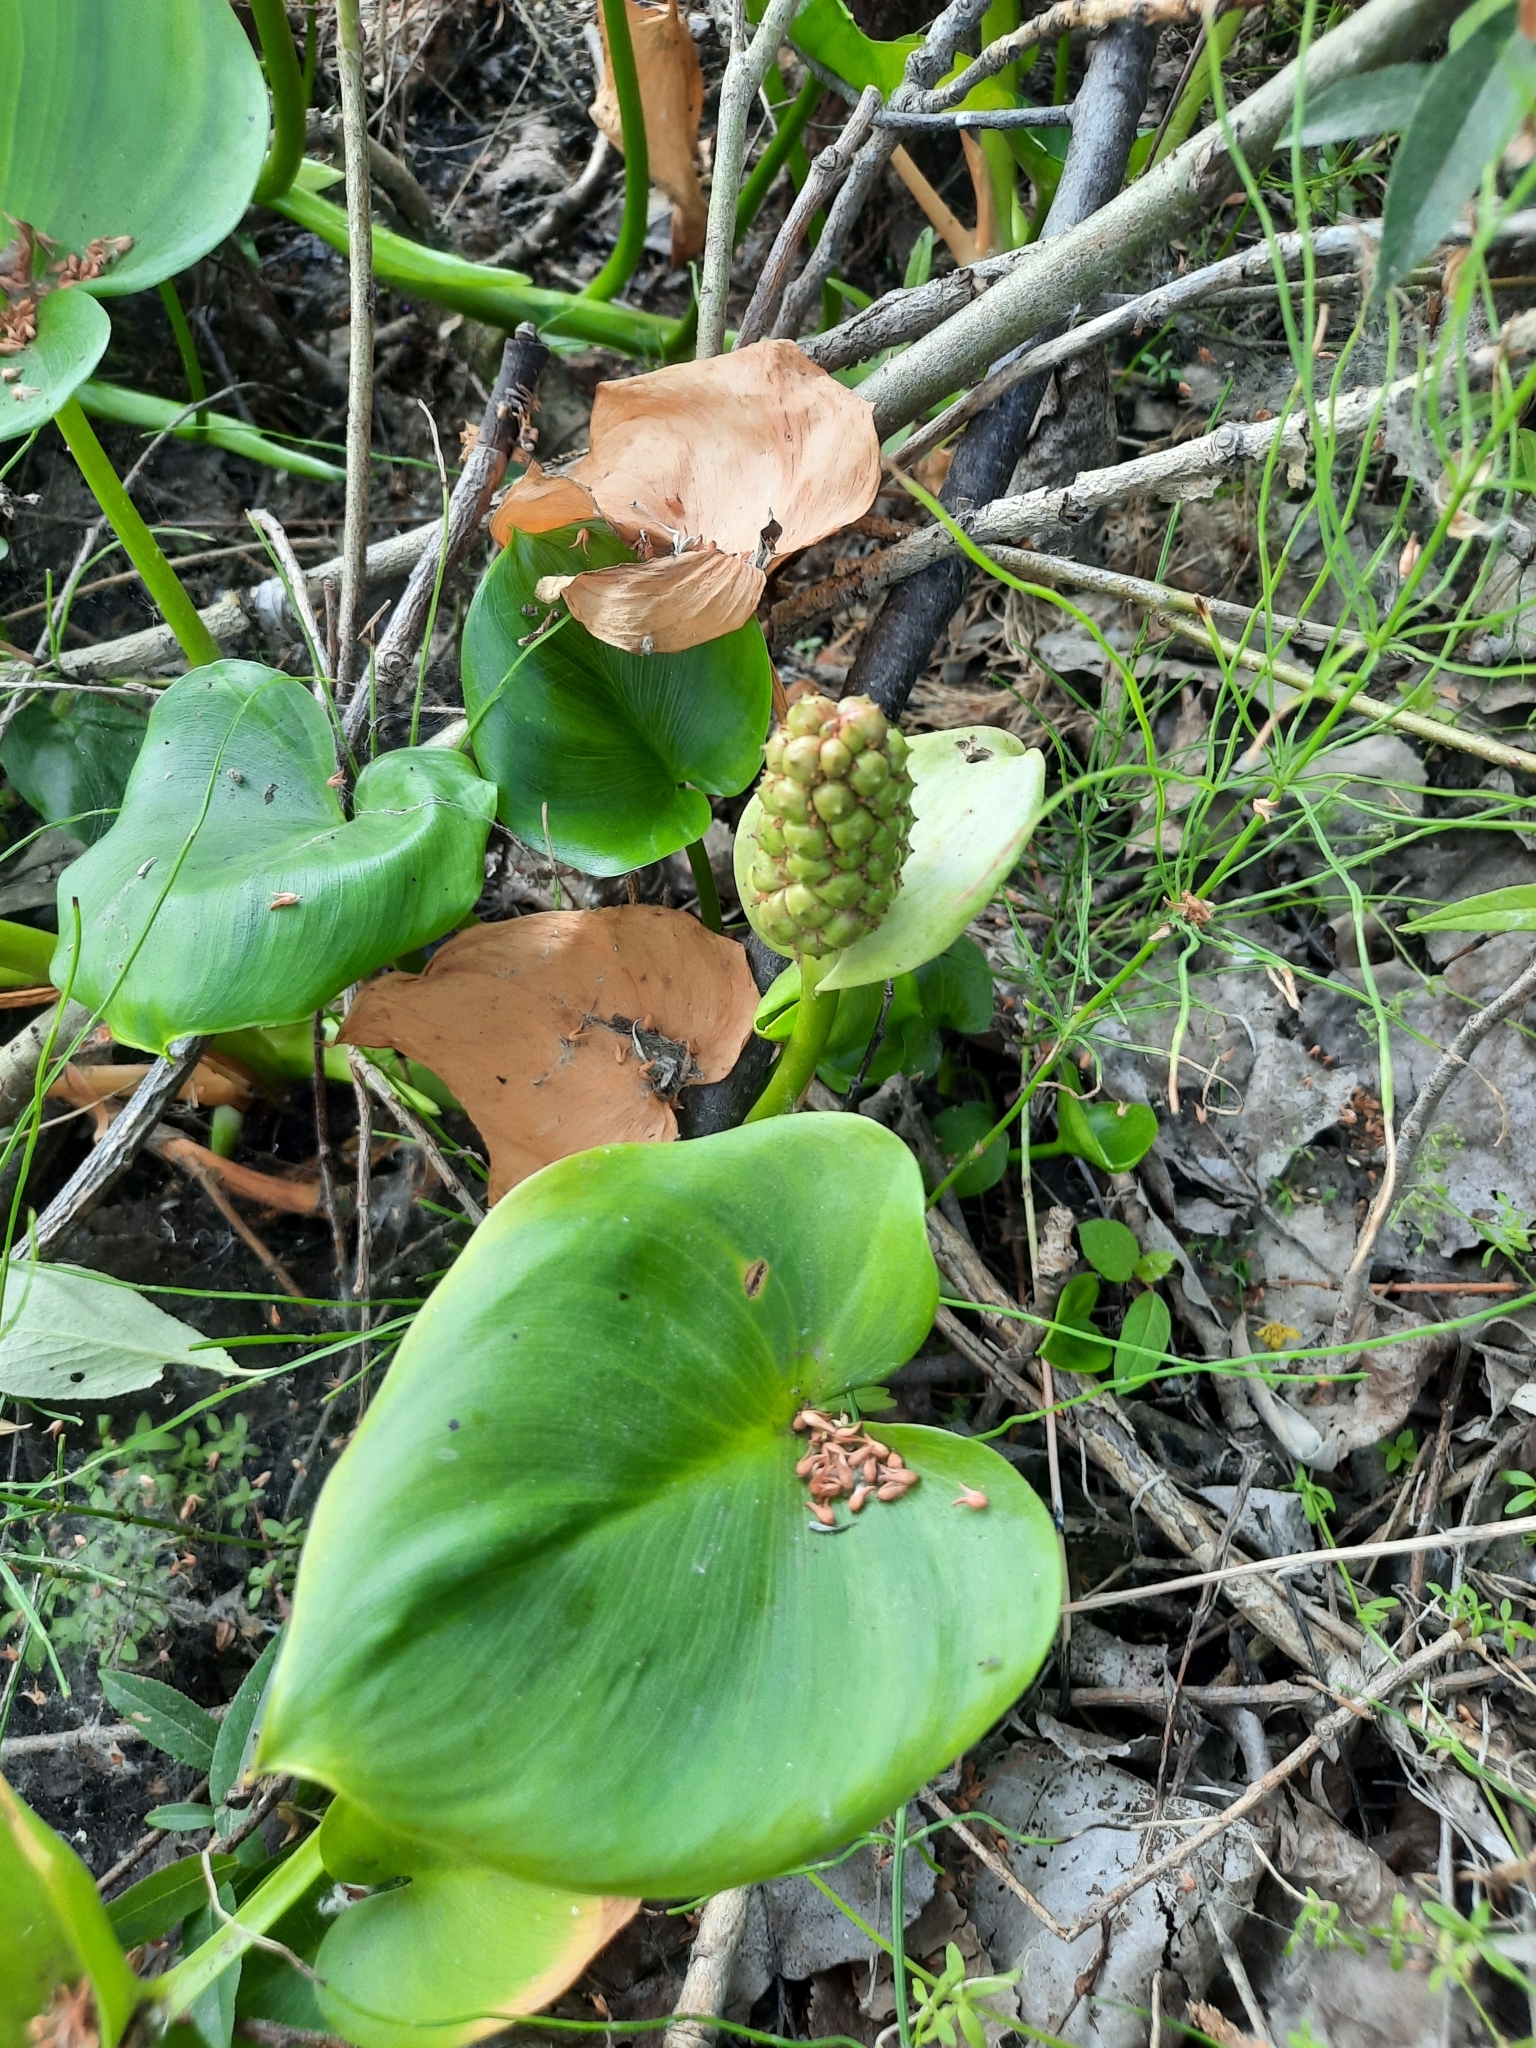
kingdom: Plantae
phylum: Tracheophyta
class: Liliopsida
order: Alismatales
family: Araceae
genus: Calla
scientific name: Calla palustris
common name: Bog arum
